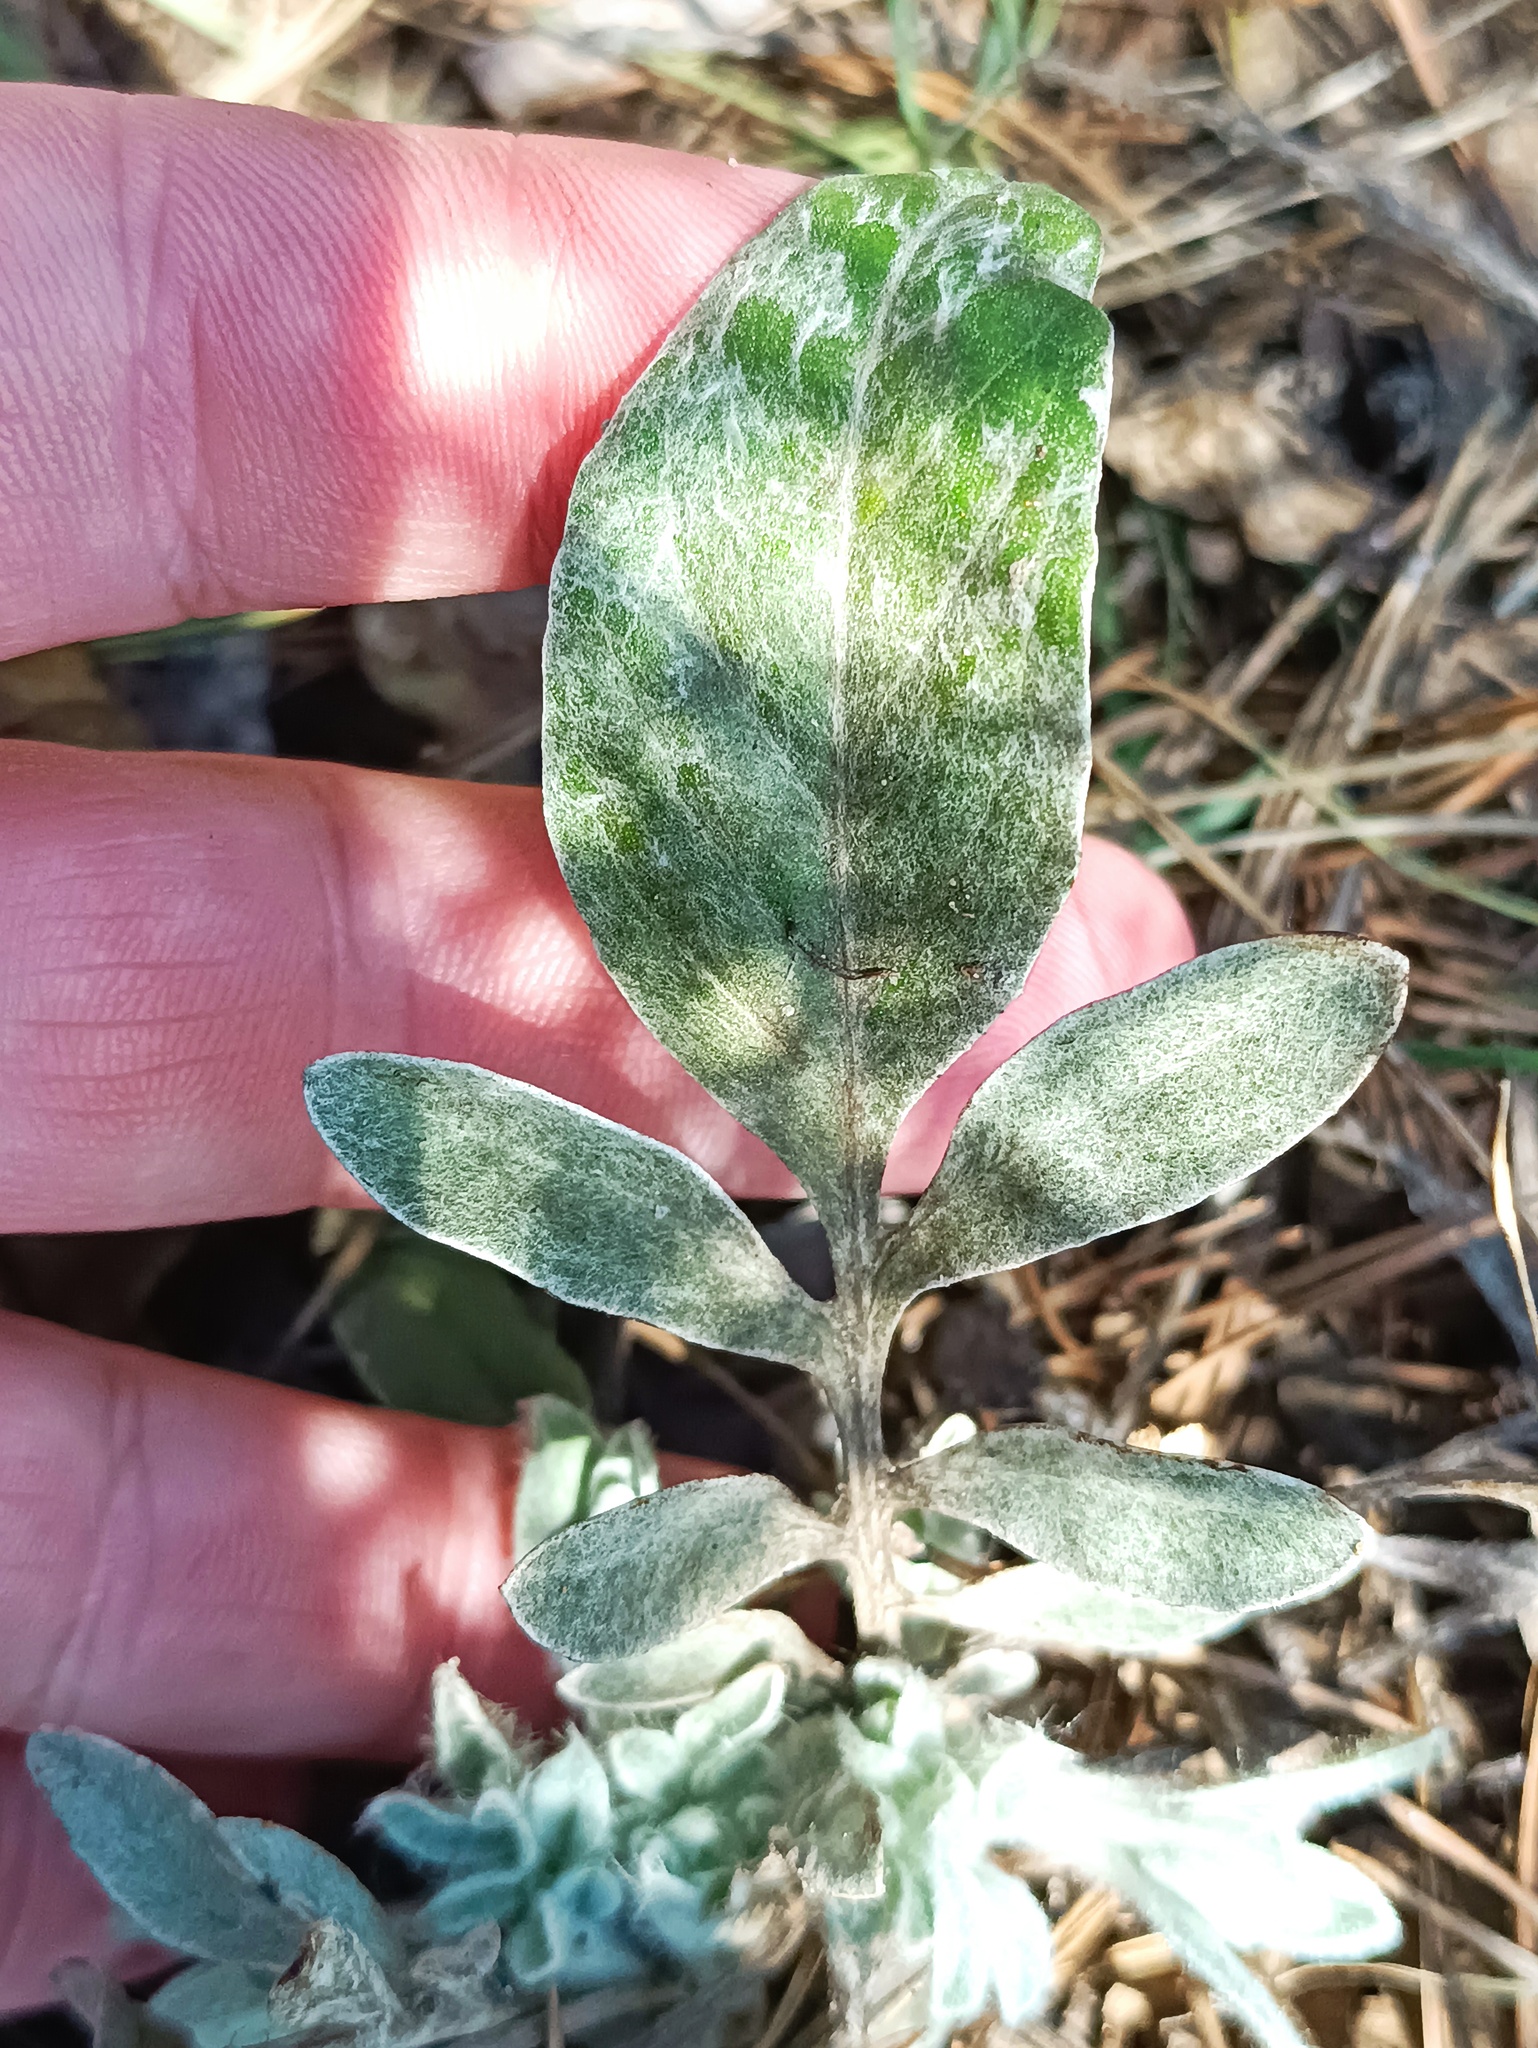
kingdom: Plantae
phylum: Tracheophyta
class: Magnoliopsida
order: Asterales
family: Asteraceae
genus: Psephellus
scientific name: Psephellus sumensis
